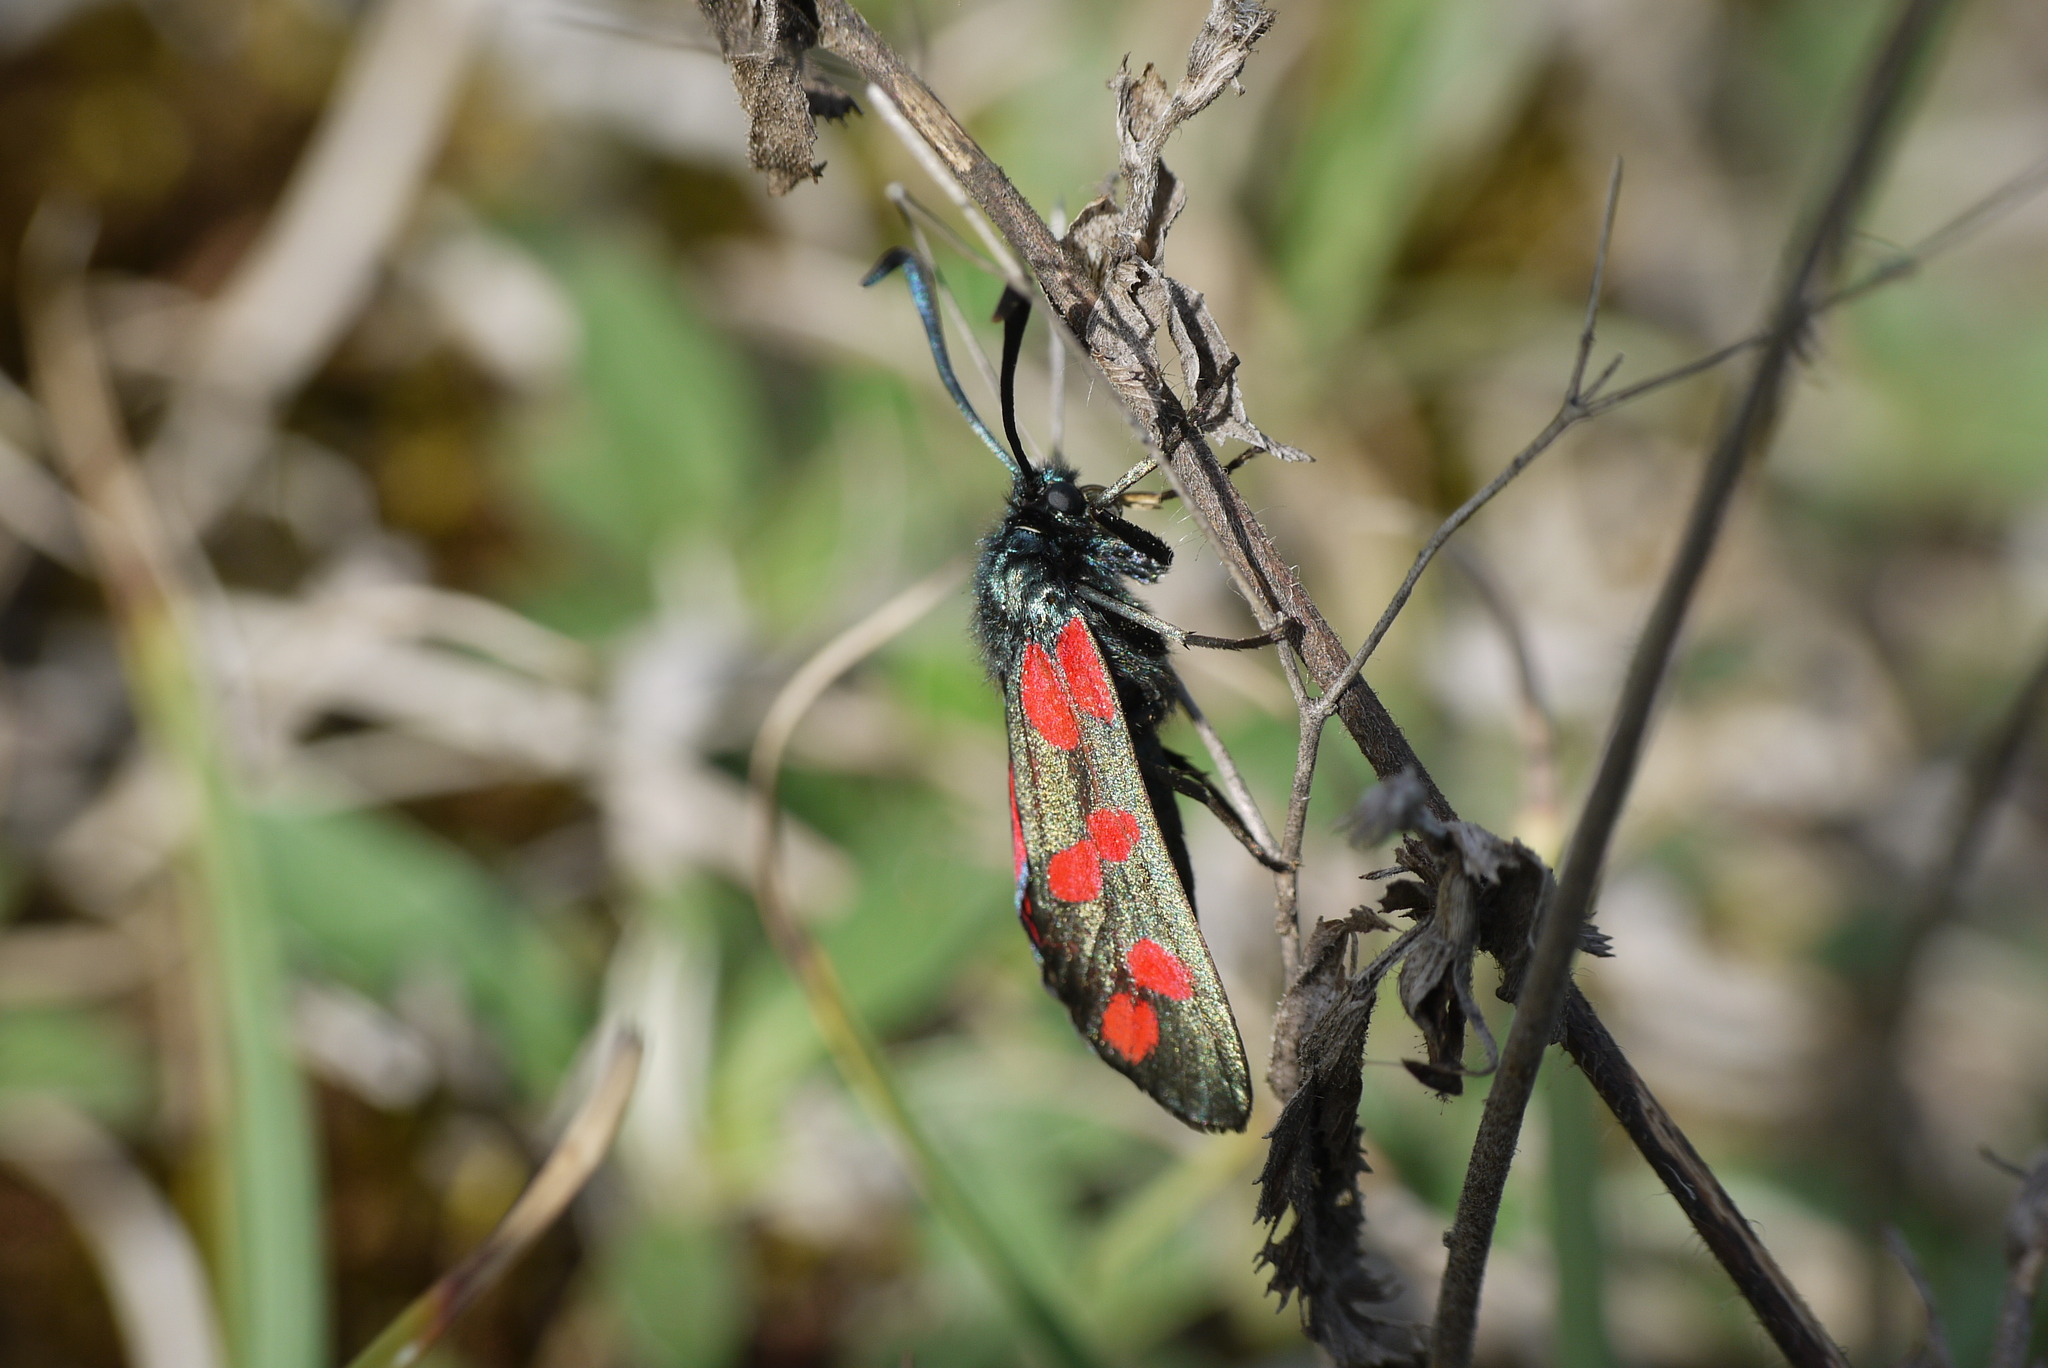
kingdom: Animalia
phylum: Arthropoda
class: Insecta
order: Lepidoptera
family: Zygaenidae
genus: Zygaena
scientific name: Zygaena filipendulae
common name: Six-spot burnet
